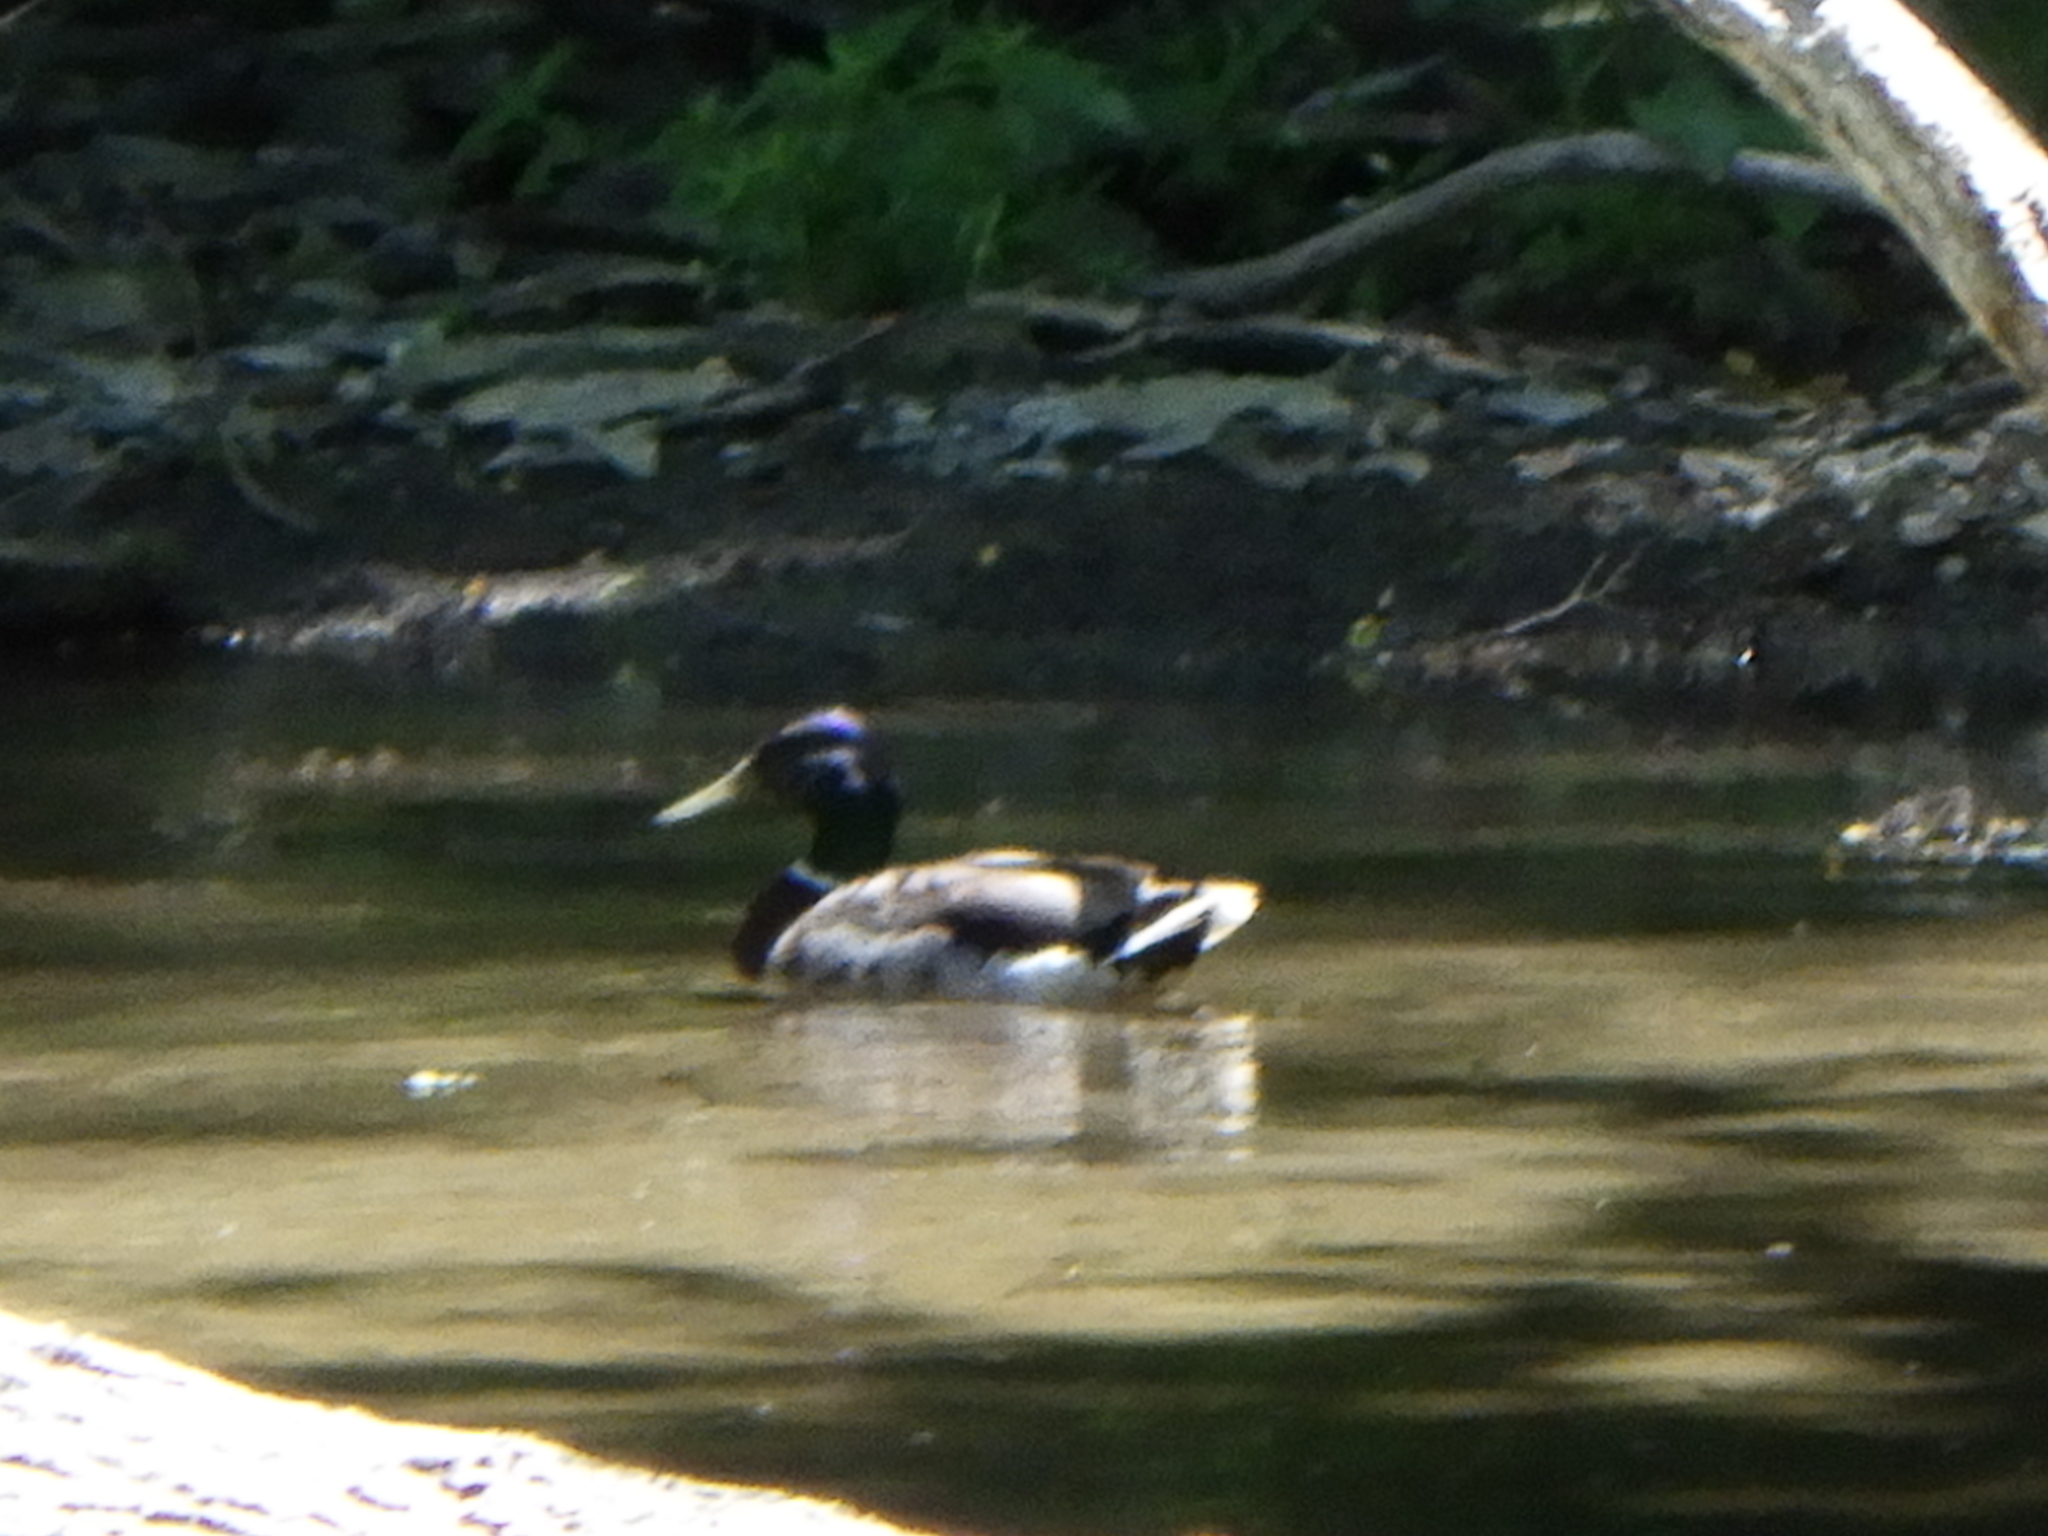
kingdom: Animalia
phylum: Chordata
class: Aves
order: Anseriformes
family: Anatidae
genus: Anas
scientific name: Anas platyrhynchos
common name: Mallard
